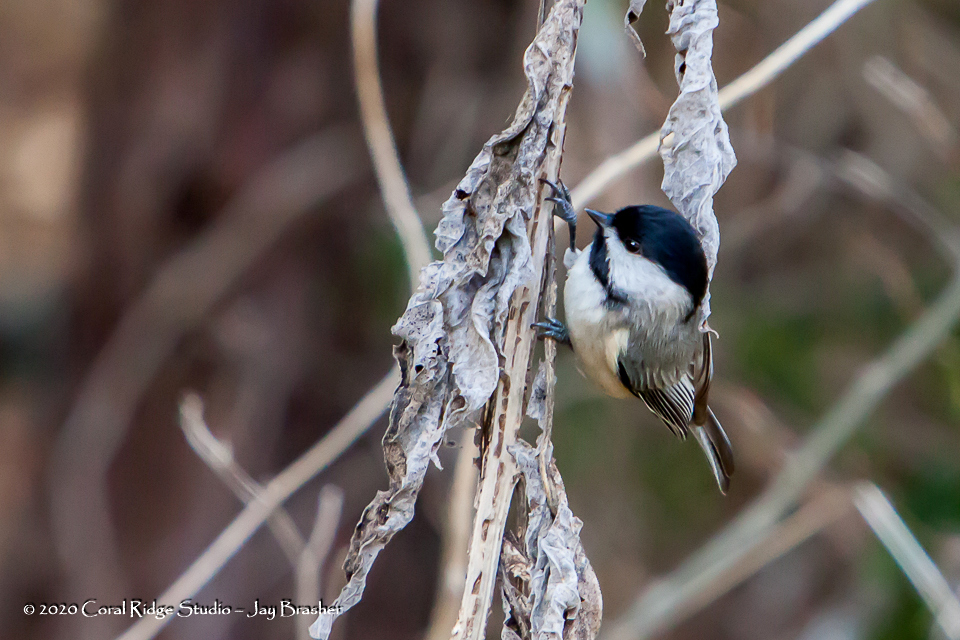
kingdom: Animalia
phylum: Chordata
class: Aves
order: Passeriformes
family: Paridae
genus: Poecile
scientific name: Poecile carolinensis
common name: Carolina chickadee
